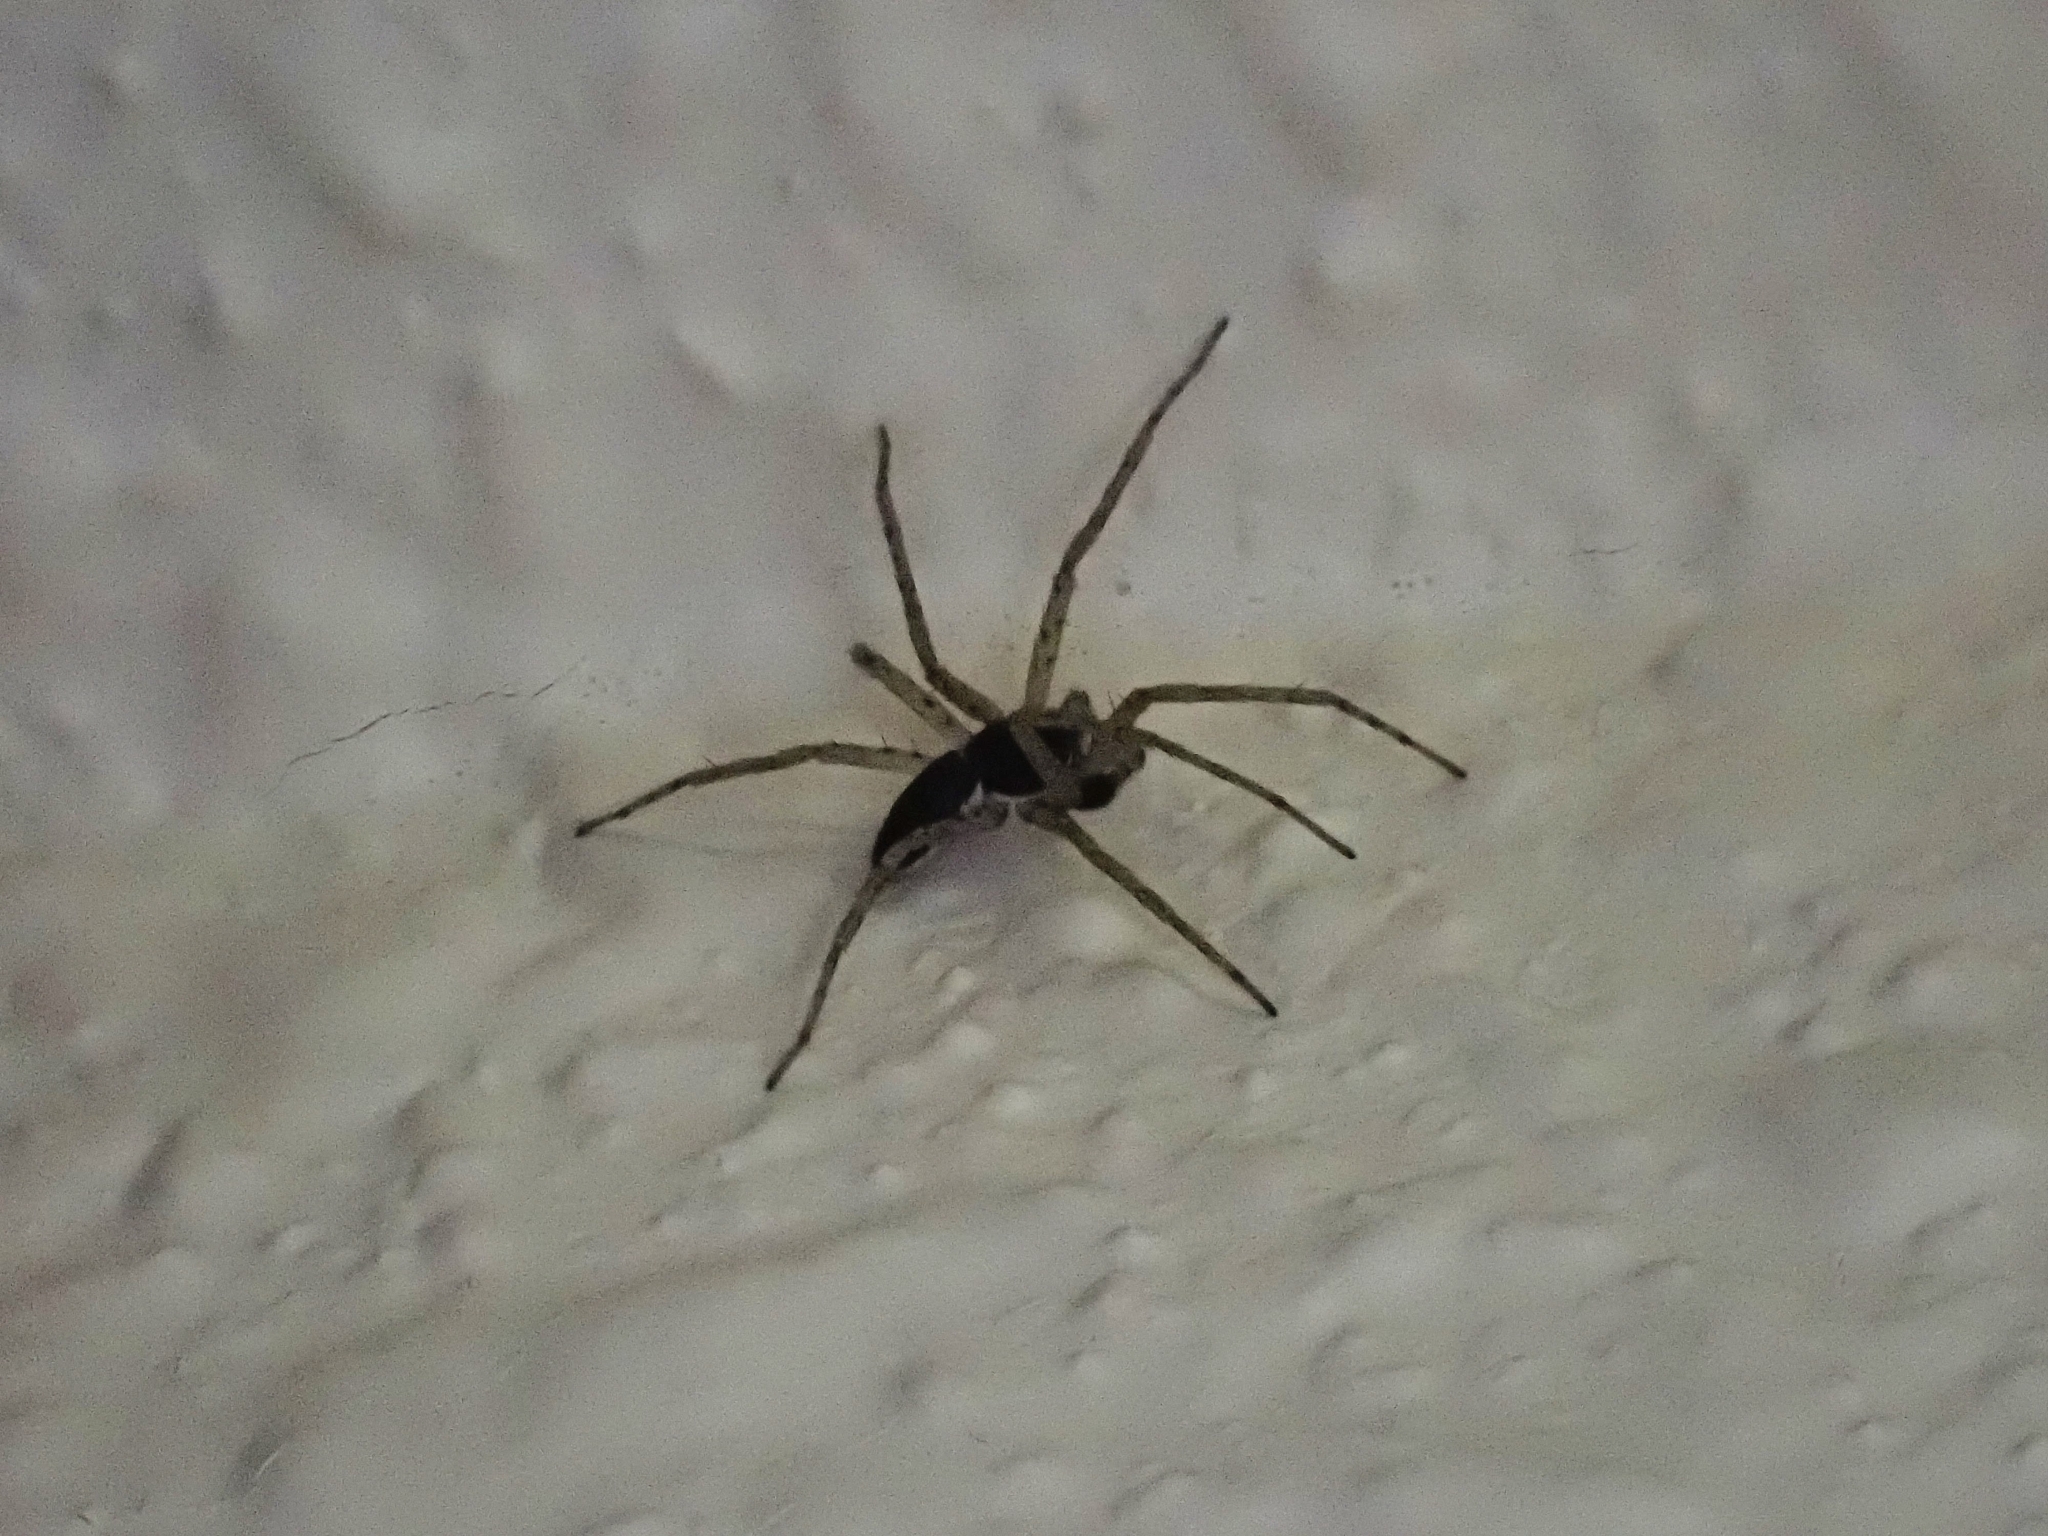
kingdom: Animalia
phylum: Arthropoda
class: Arachnida
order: Araneae
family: Philodromidae
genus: Philodromus
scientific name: Philodromus dispar
